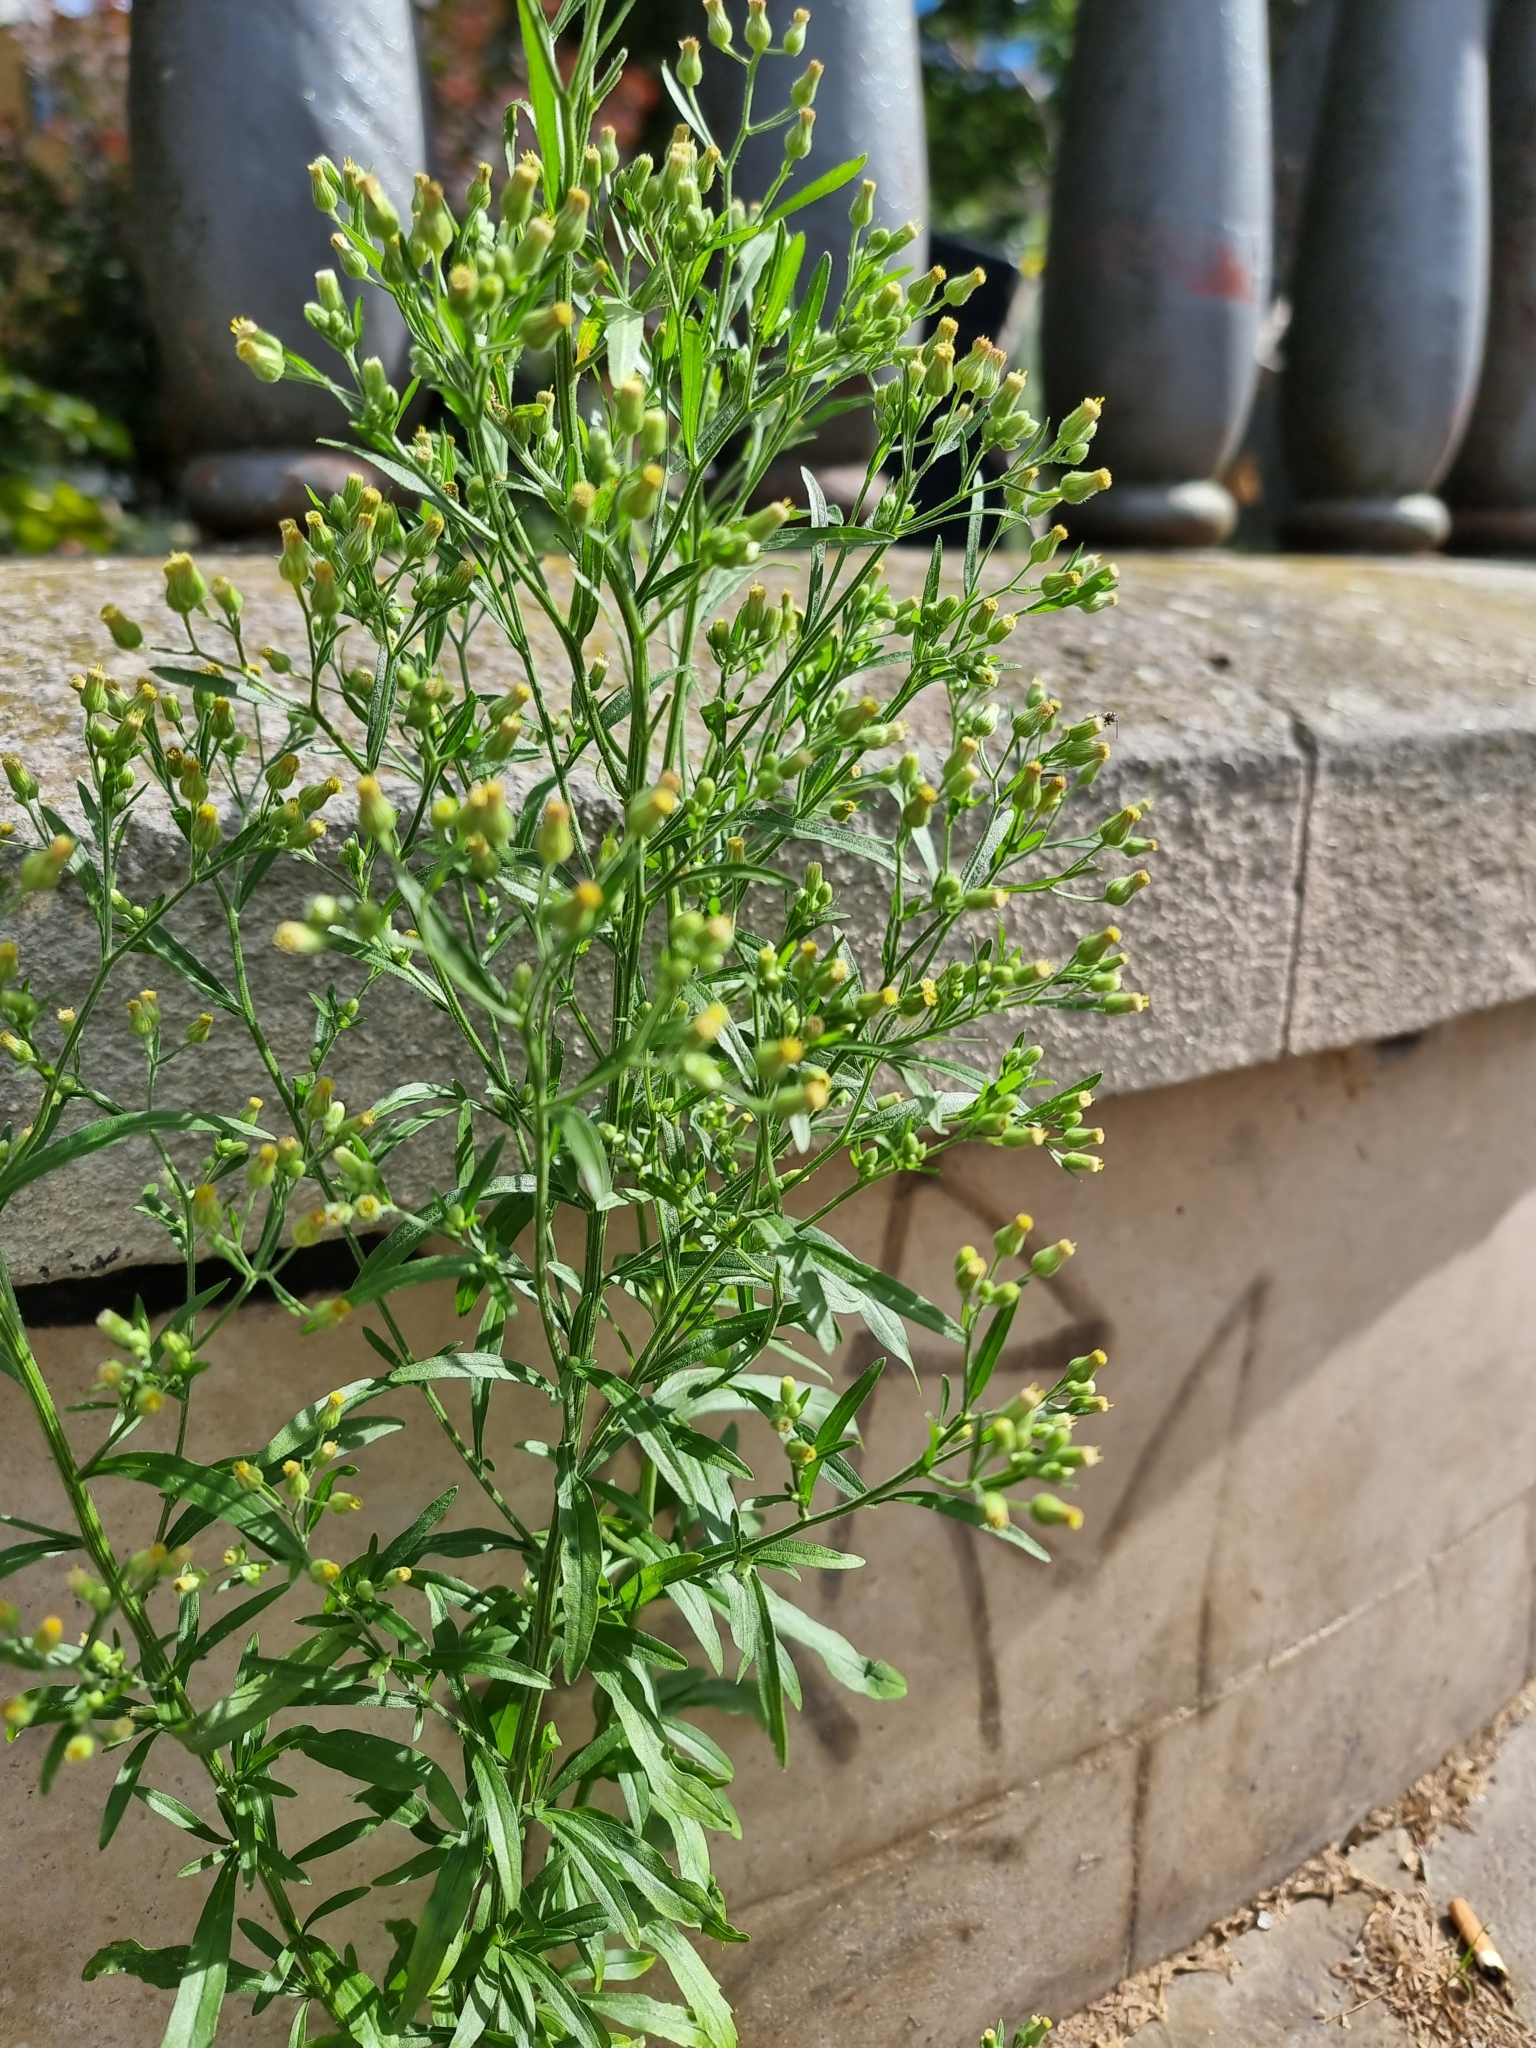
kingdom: Plantae
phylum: Tracheophyta
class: Magnoliopsida
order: Asterales
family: Asteraceae
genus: Erigeron
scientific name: Erigeron sumatrensis
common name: Daisy
